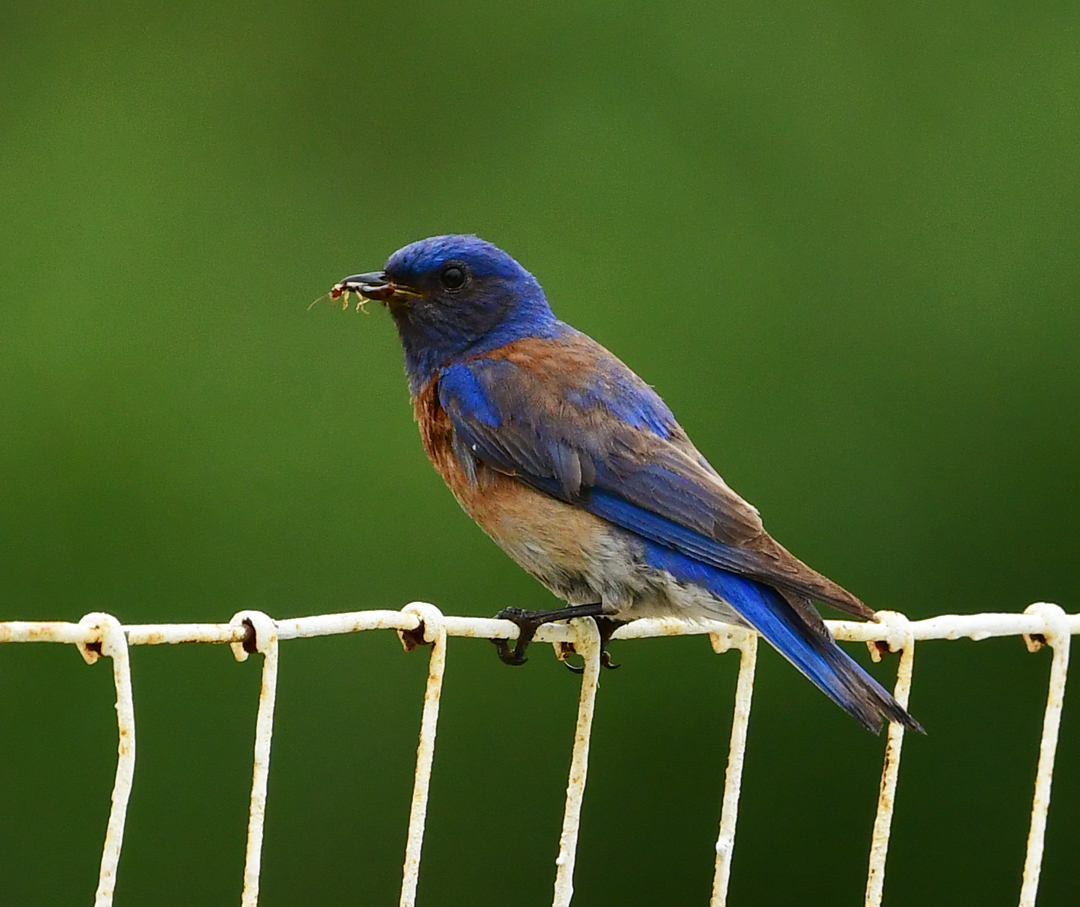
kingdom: Animalia
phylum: Chordata
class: Aves
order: Passeriformes
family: Turdidae
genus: Sialia
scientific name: Sialia mexicana
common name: Western bluebird
